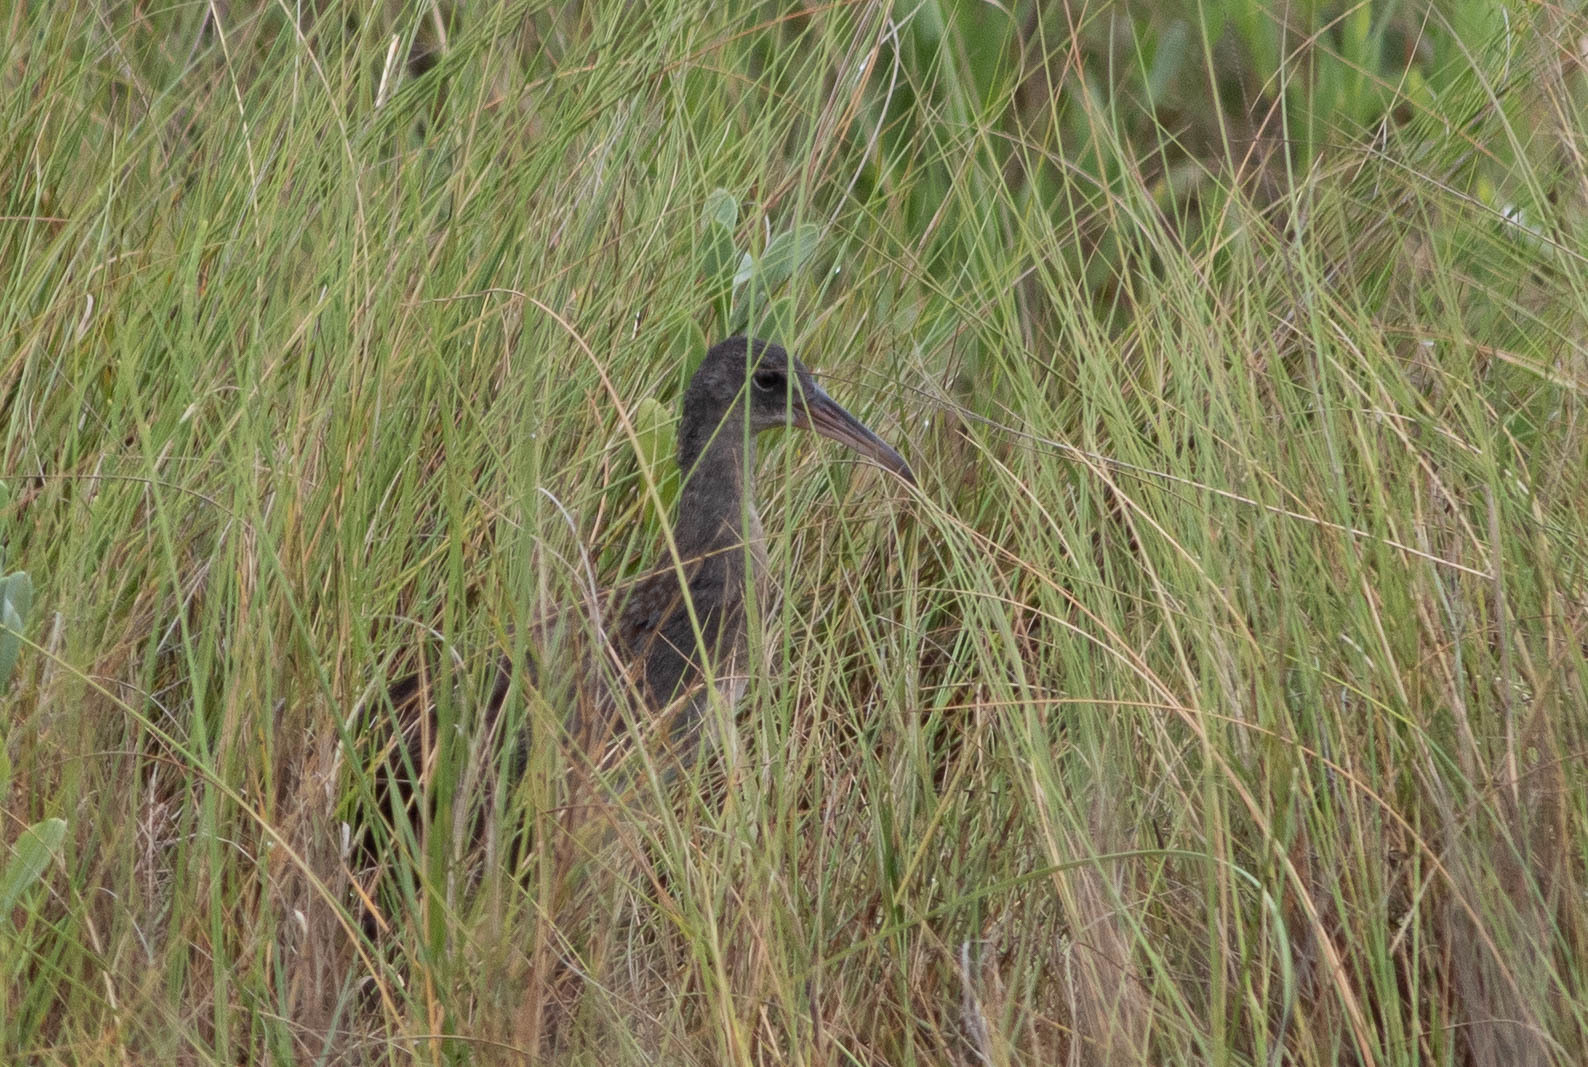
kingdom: Animalia
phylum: Chordata
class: Aves
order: Gruiformes
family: Rallidae
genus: Rallus
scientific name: Rallus crepitans
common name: Clapper rail
